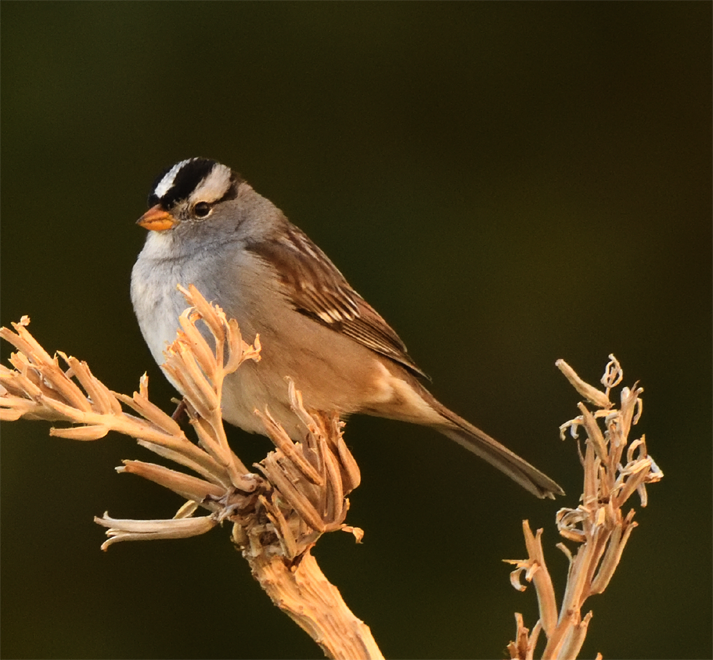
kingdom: Animalia
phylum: Chordata
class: Aves
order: Passeriformes
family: Passerellidae
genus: Zonotrichia
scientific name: Zonotrichia leucophrys
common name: White-crowned sparrow
